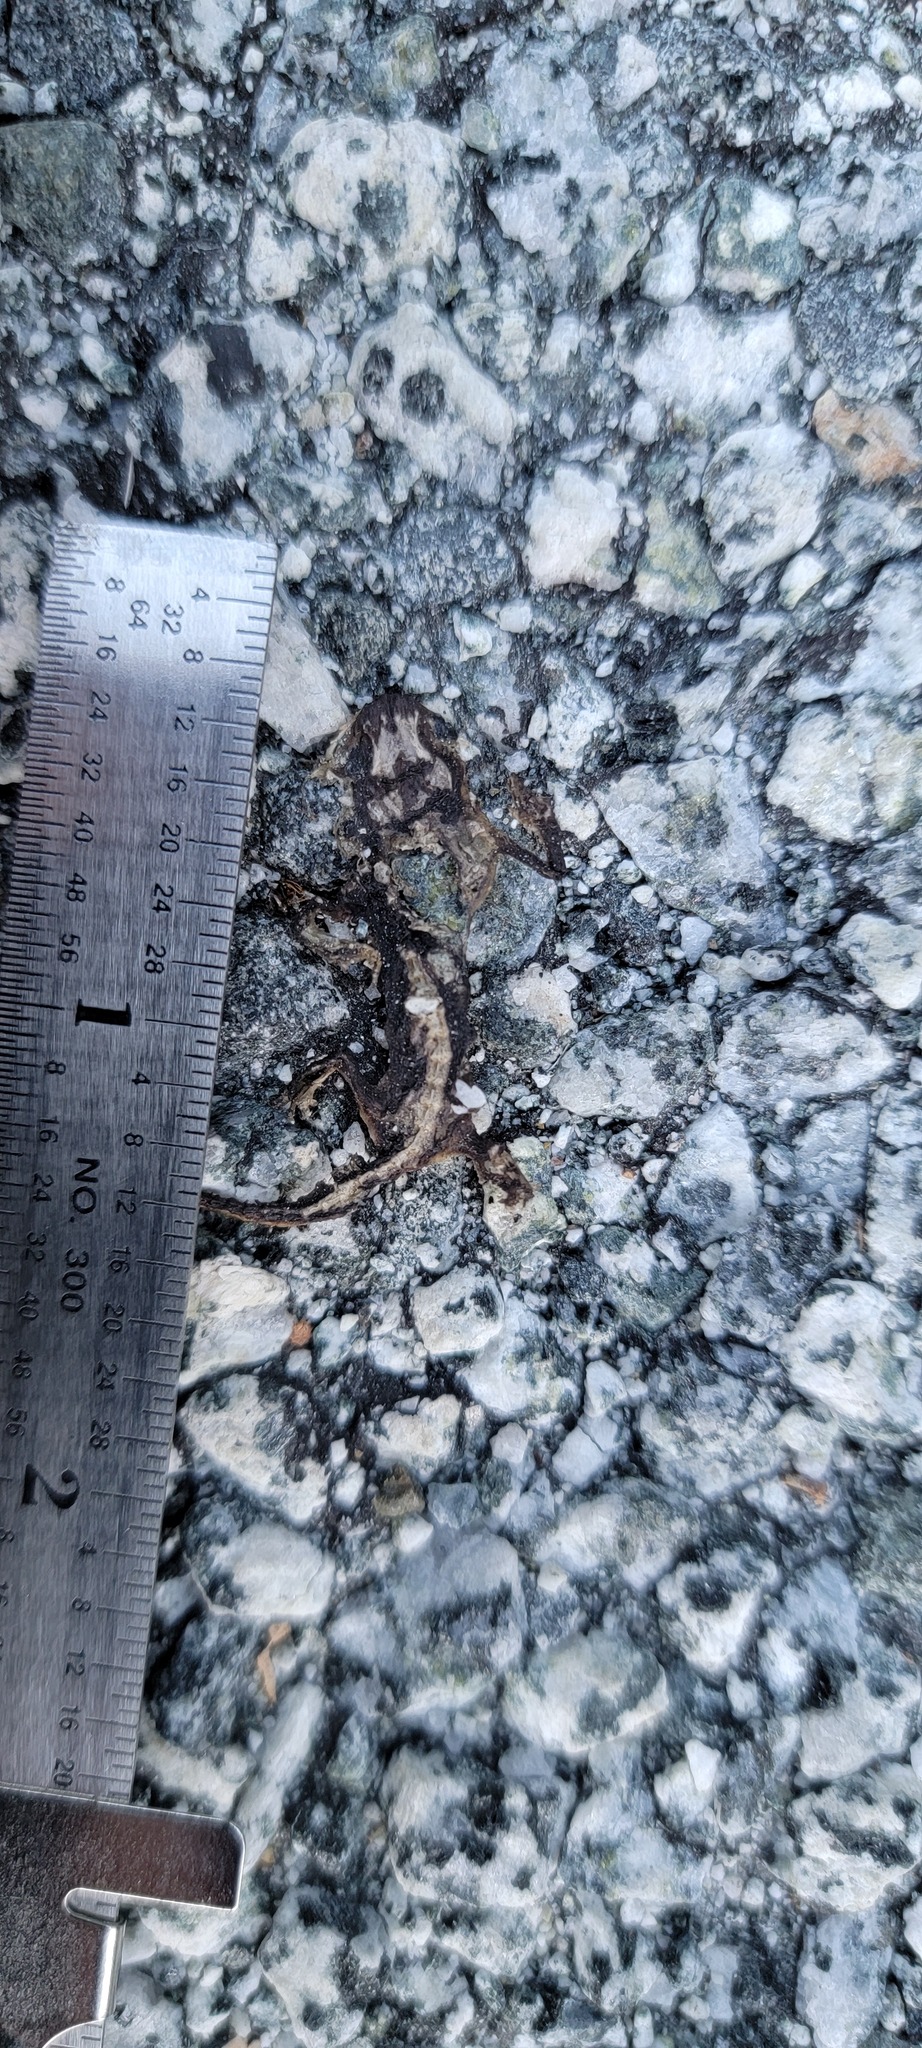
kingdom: Animalia
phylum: Chordata
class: Amphibia
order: Caudata
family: Salamandridae
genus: Taricha
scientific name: Taricha
